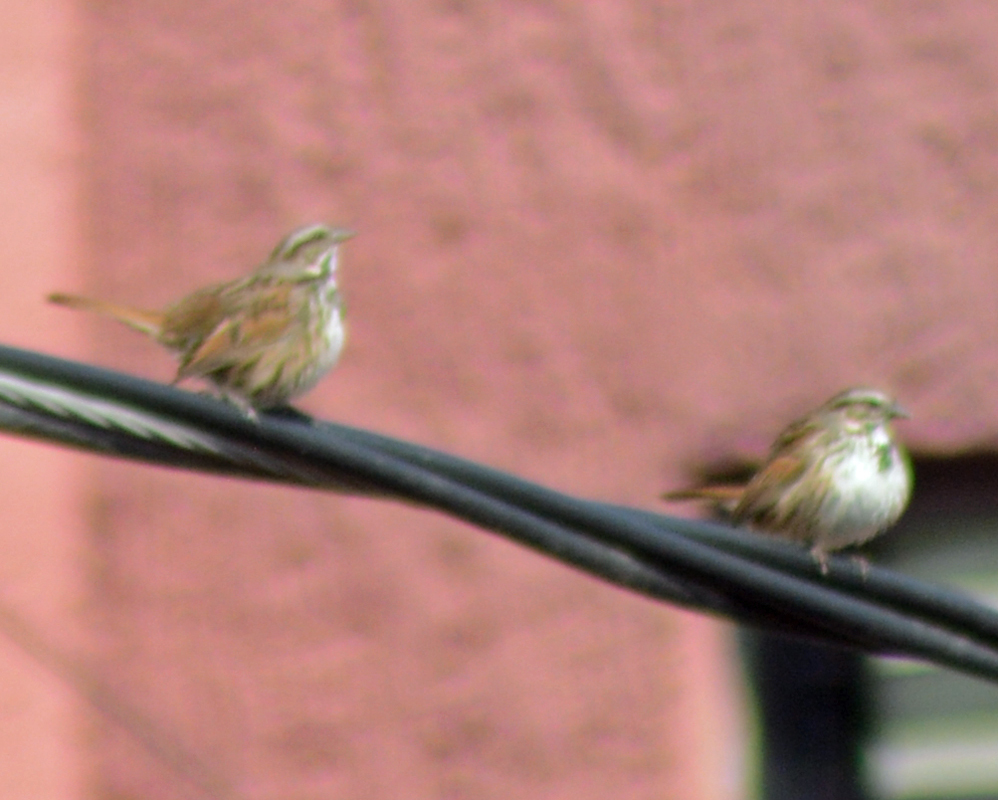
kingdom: Animalia
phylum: Chordata
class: Aves
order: Passeriformes
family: Passerellidae
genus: Melospiza
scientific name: Melospiza melodia
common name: Song sparrow
